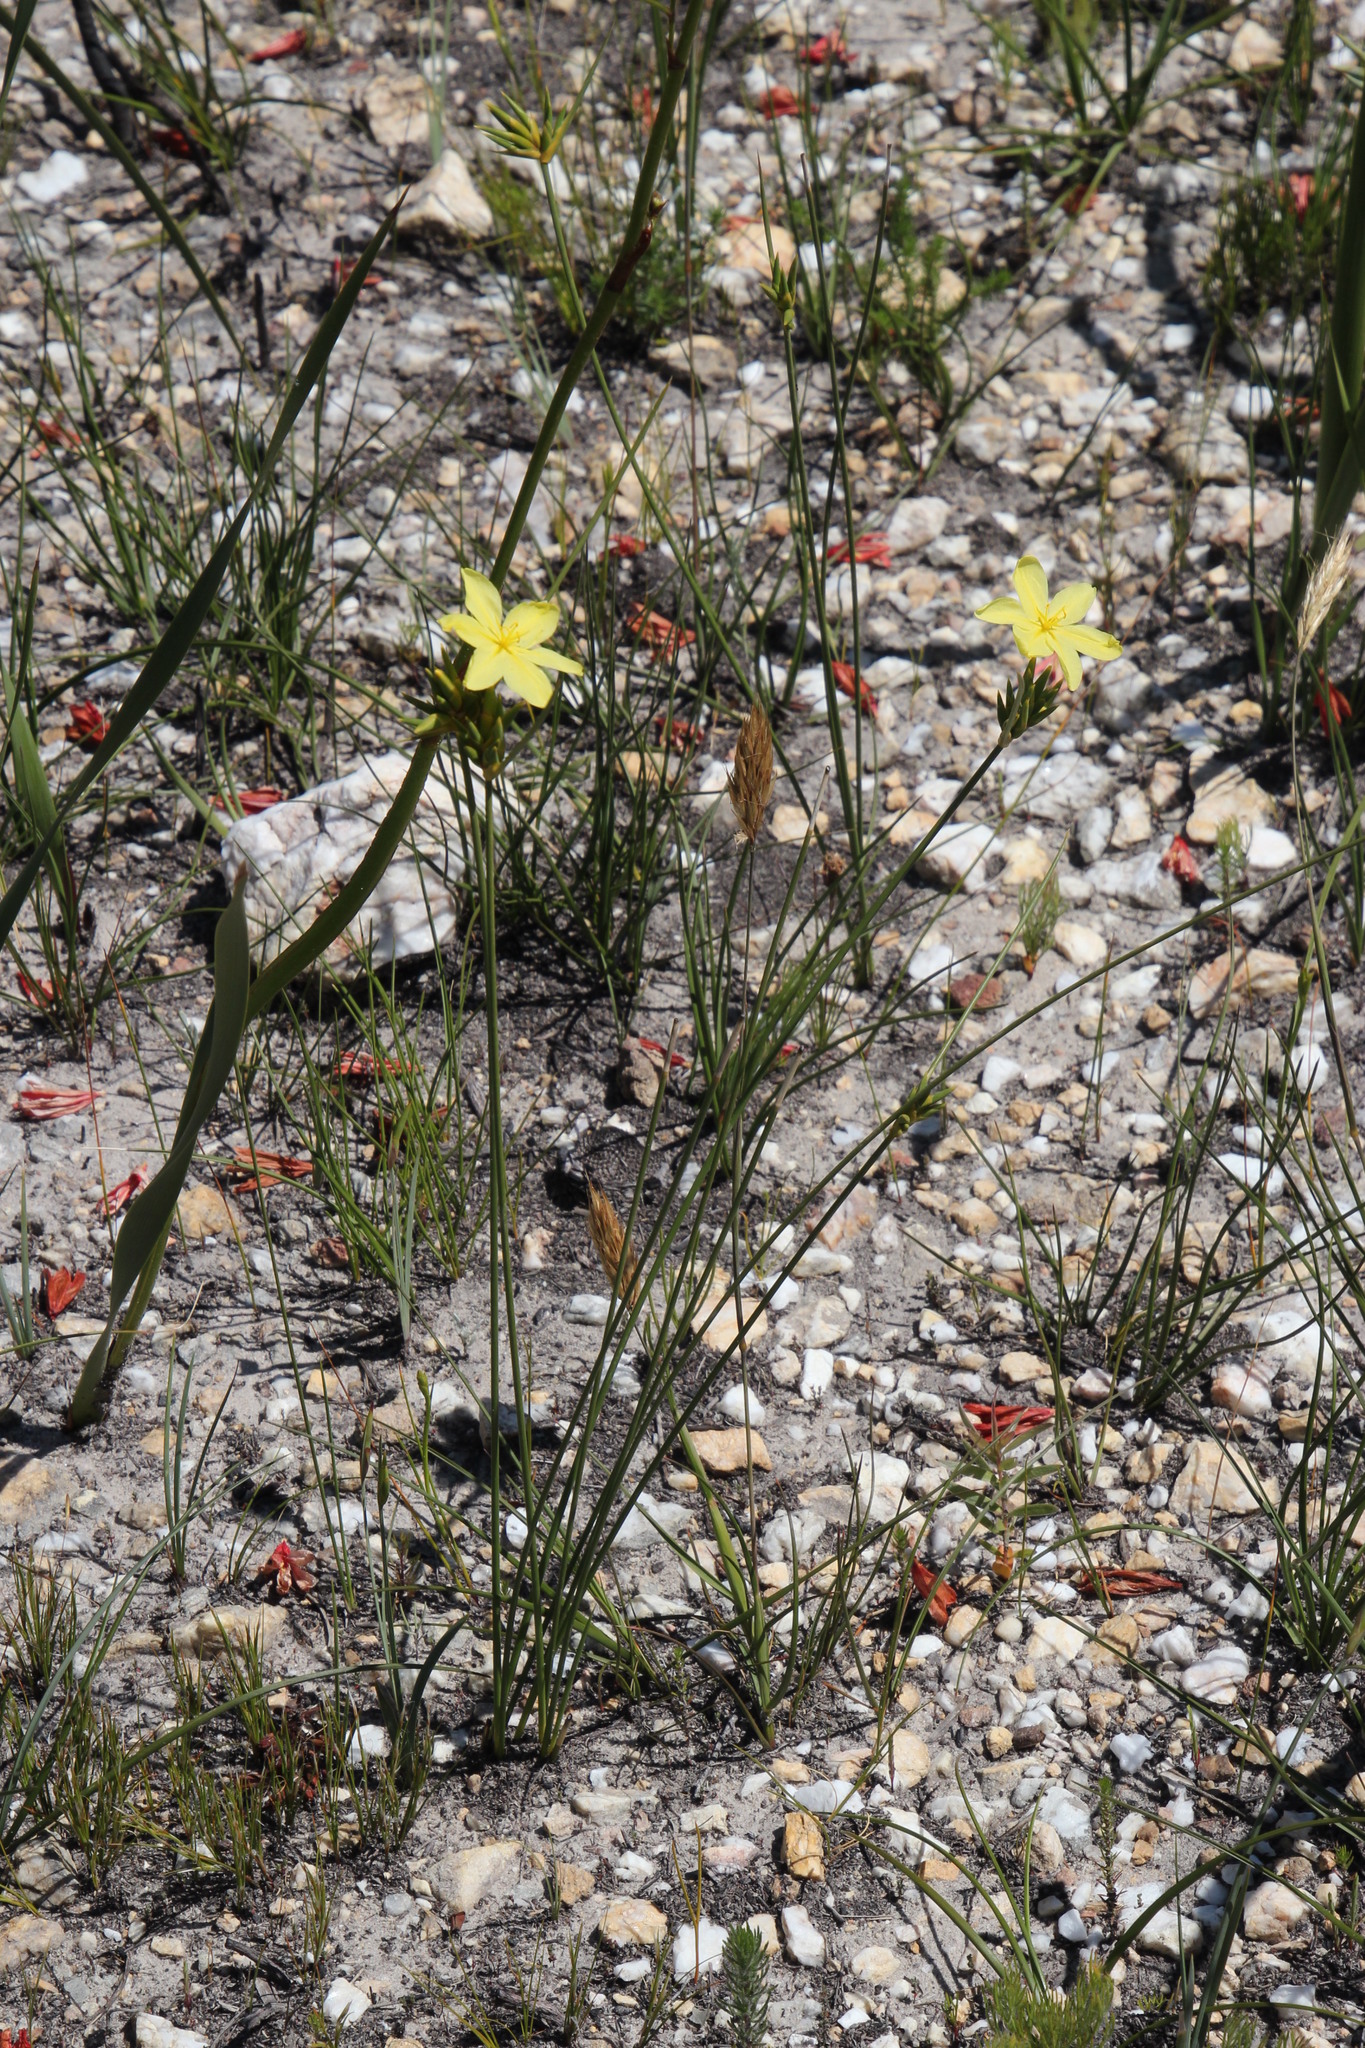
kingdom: Plantae
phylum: Tracheophyta
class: Liliopsida
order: Asparagales
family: Iridaceae
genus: Bobartia
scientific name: Bobartia longicyma
